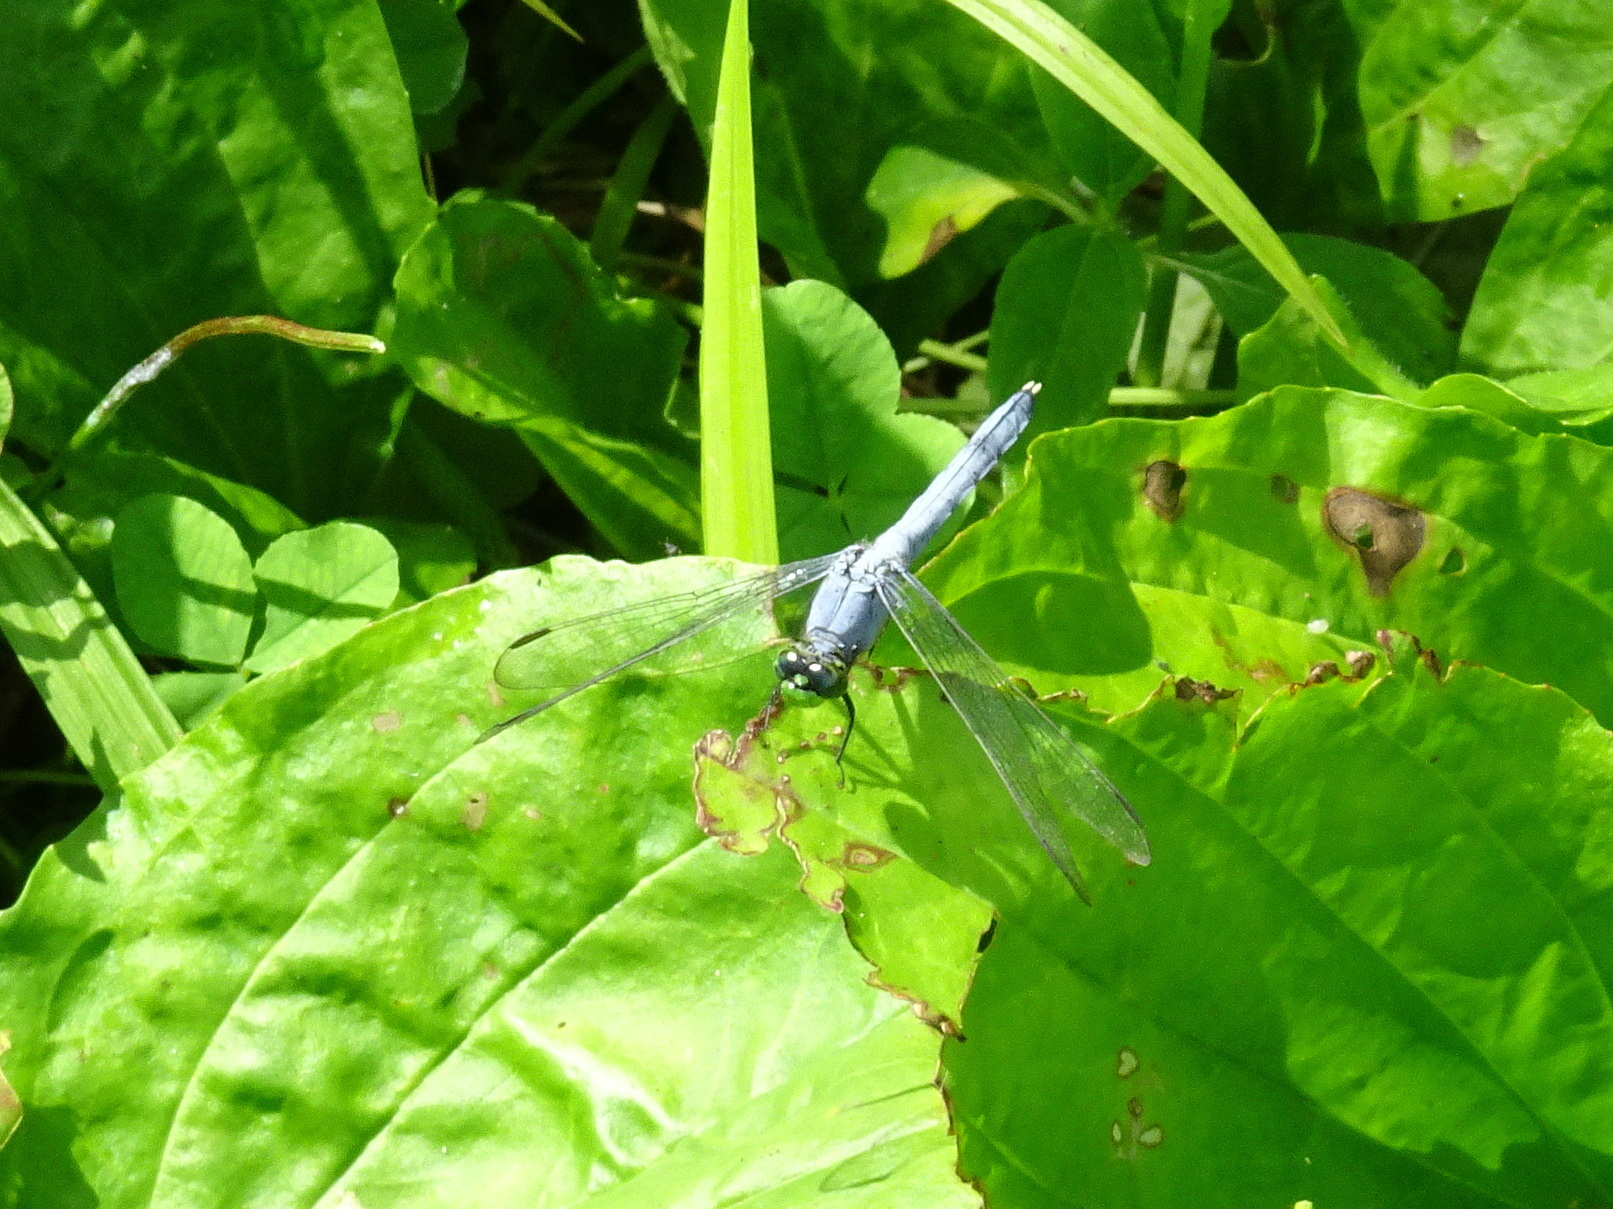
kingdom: Animalia
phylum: Arthropoda
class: Insecta
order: Odonata
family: Libellulidae
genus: Erythemis
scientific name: Erythemis simplicicollis
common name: Eastern pondhawk
